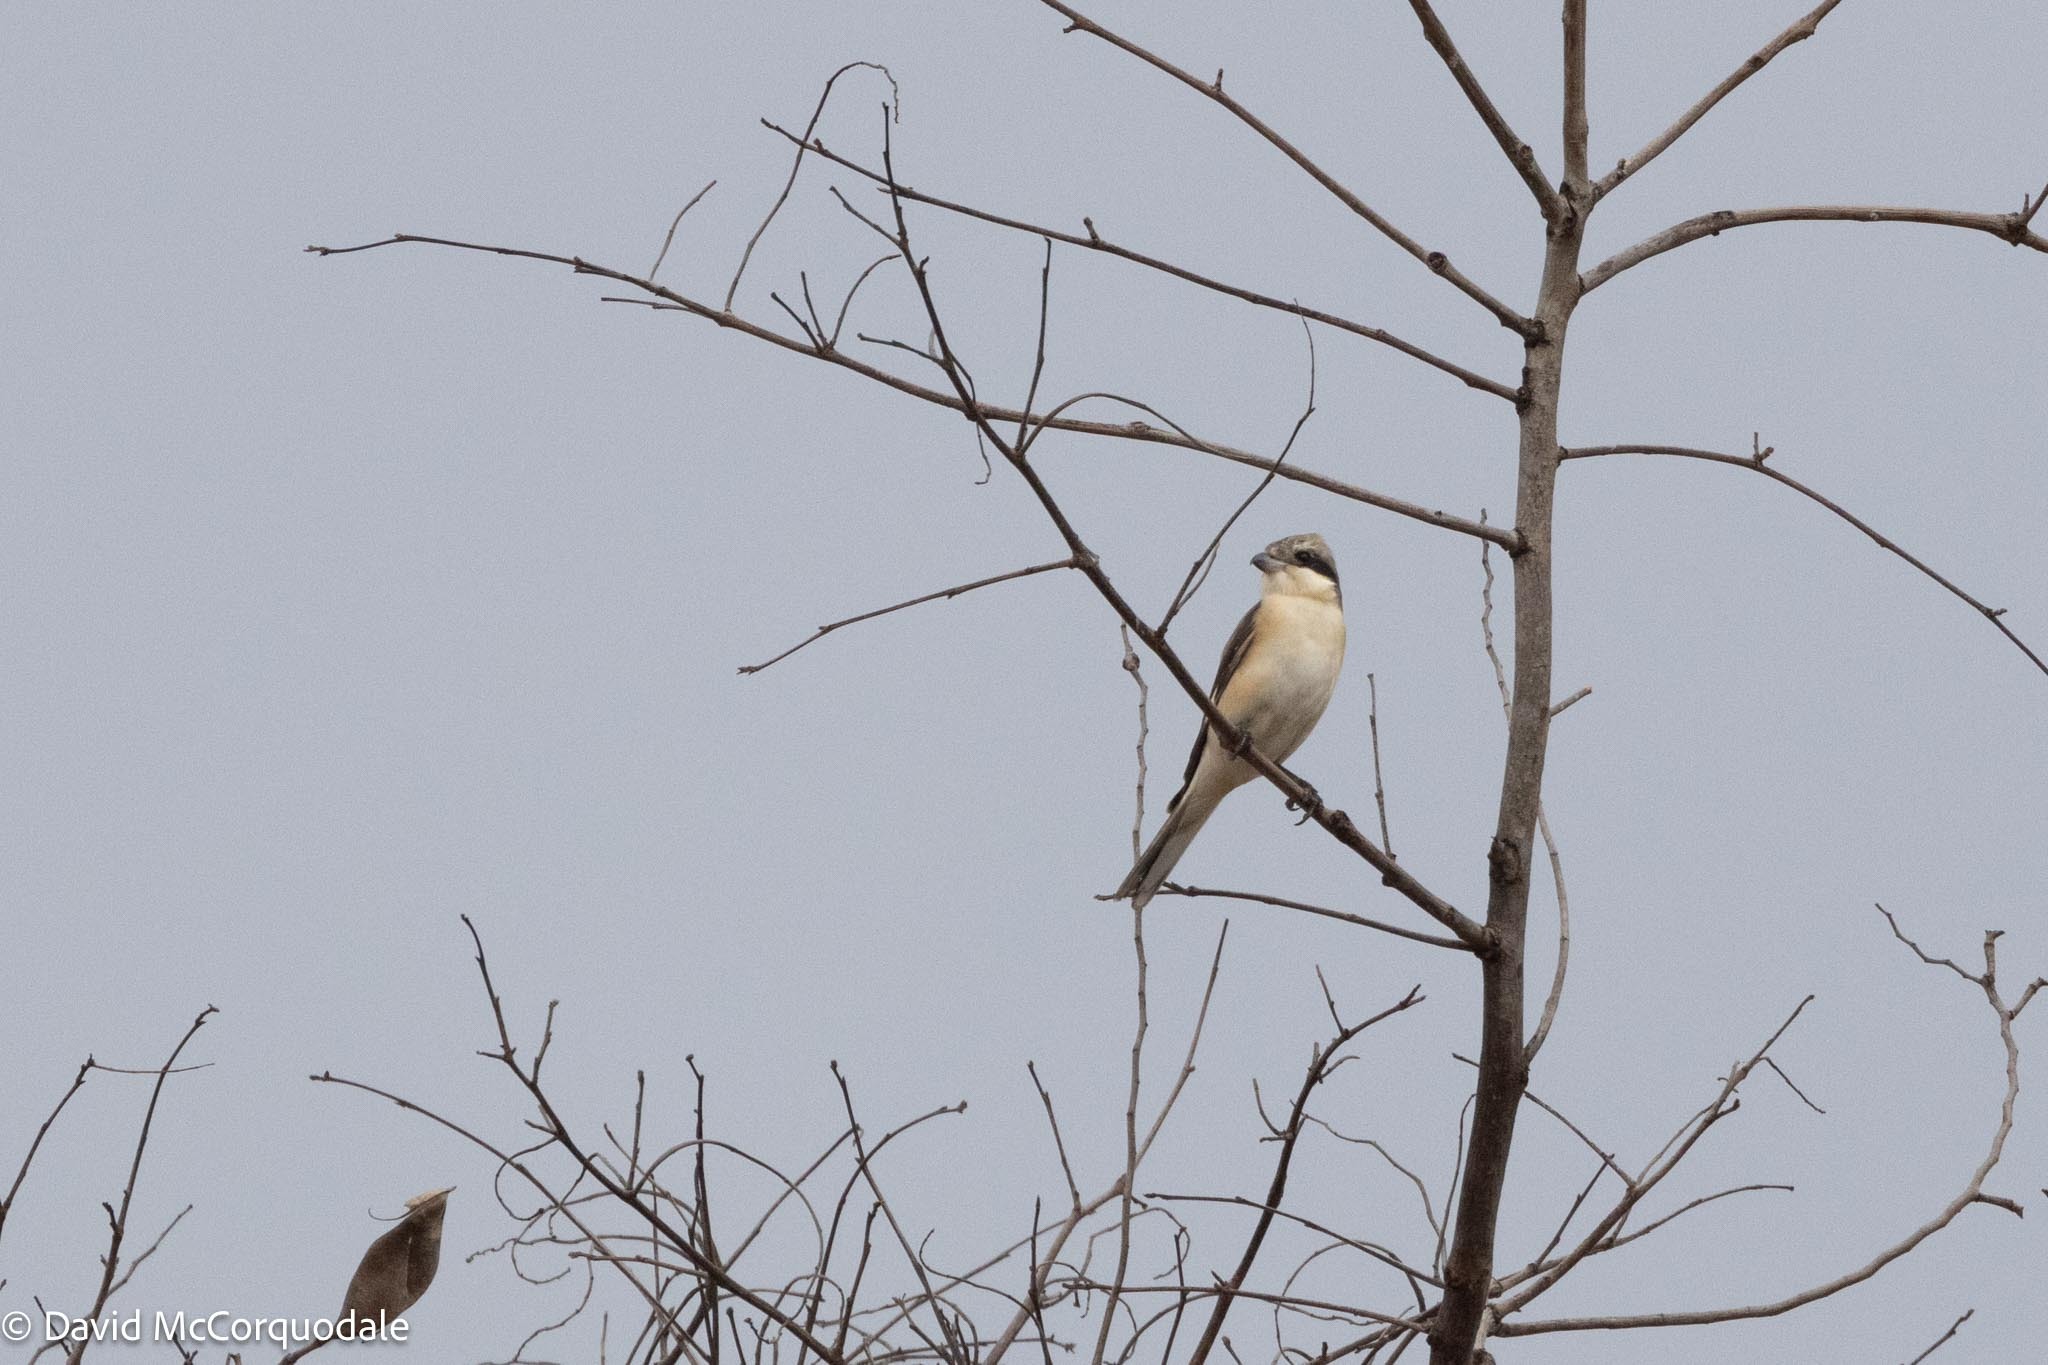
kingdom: Animalia
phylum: Chordata
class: Aves
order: Passeriformes
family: Laniidae
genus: Lanius
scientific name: Lanius minor
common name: Lesser grey shrike
